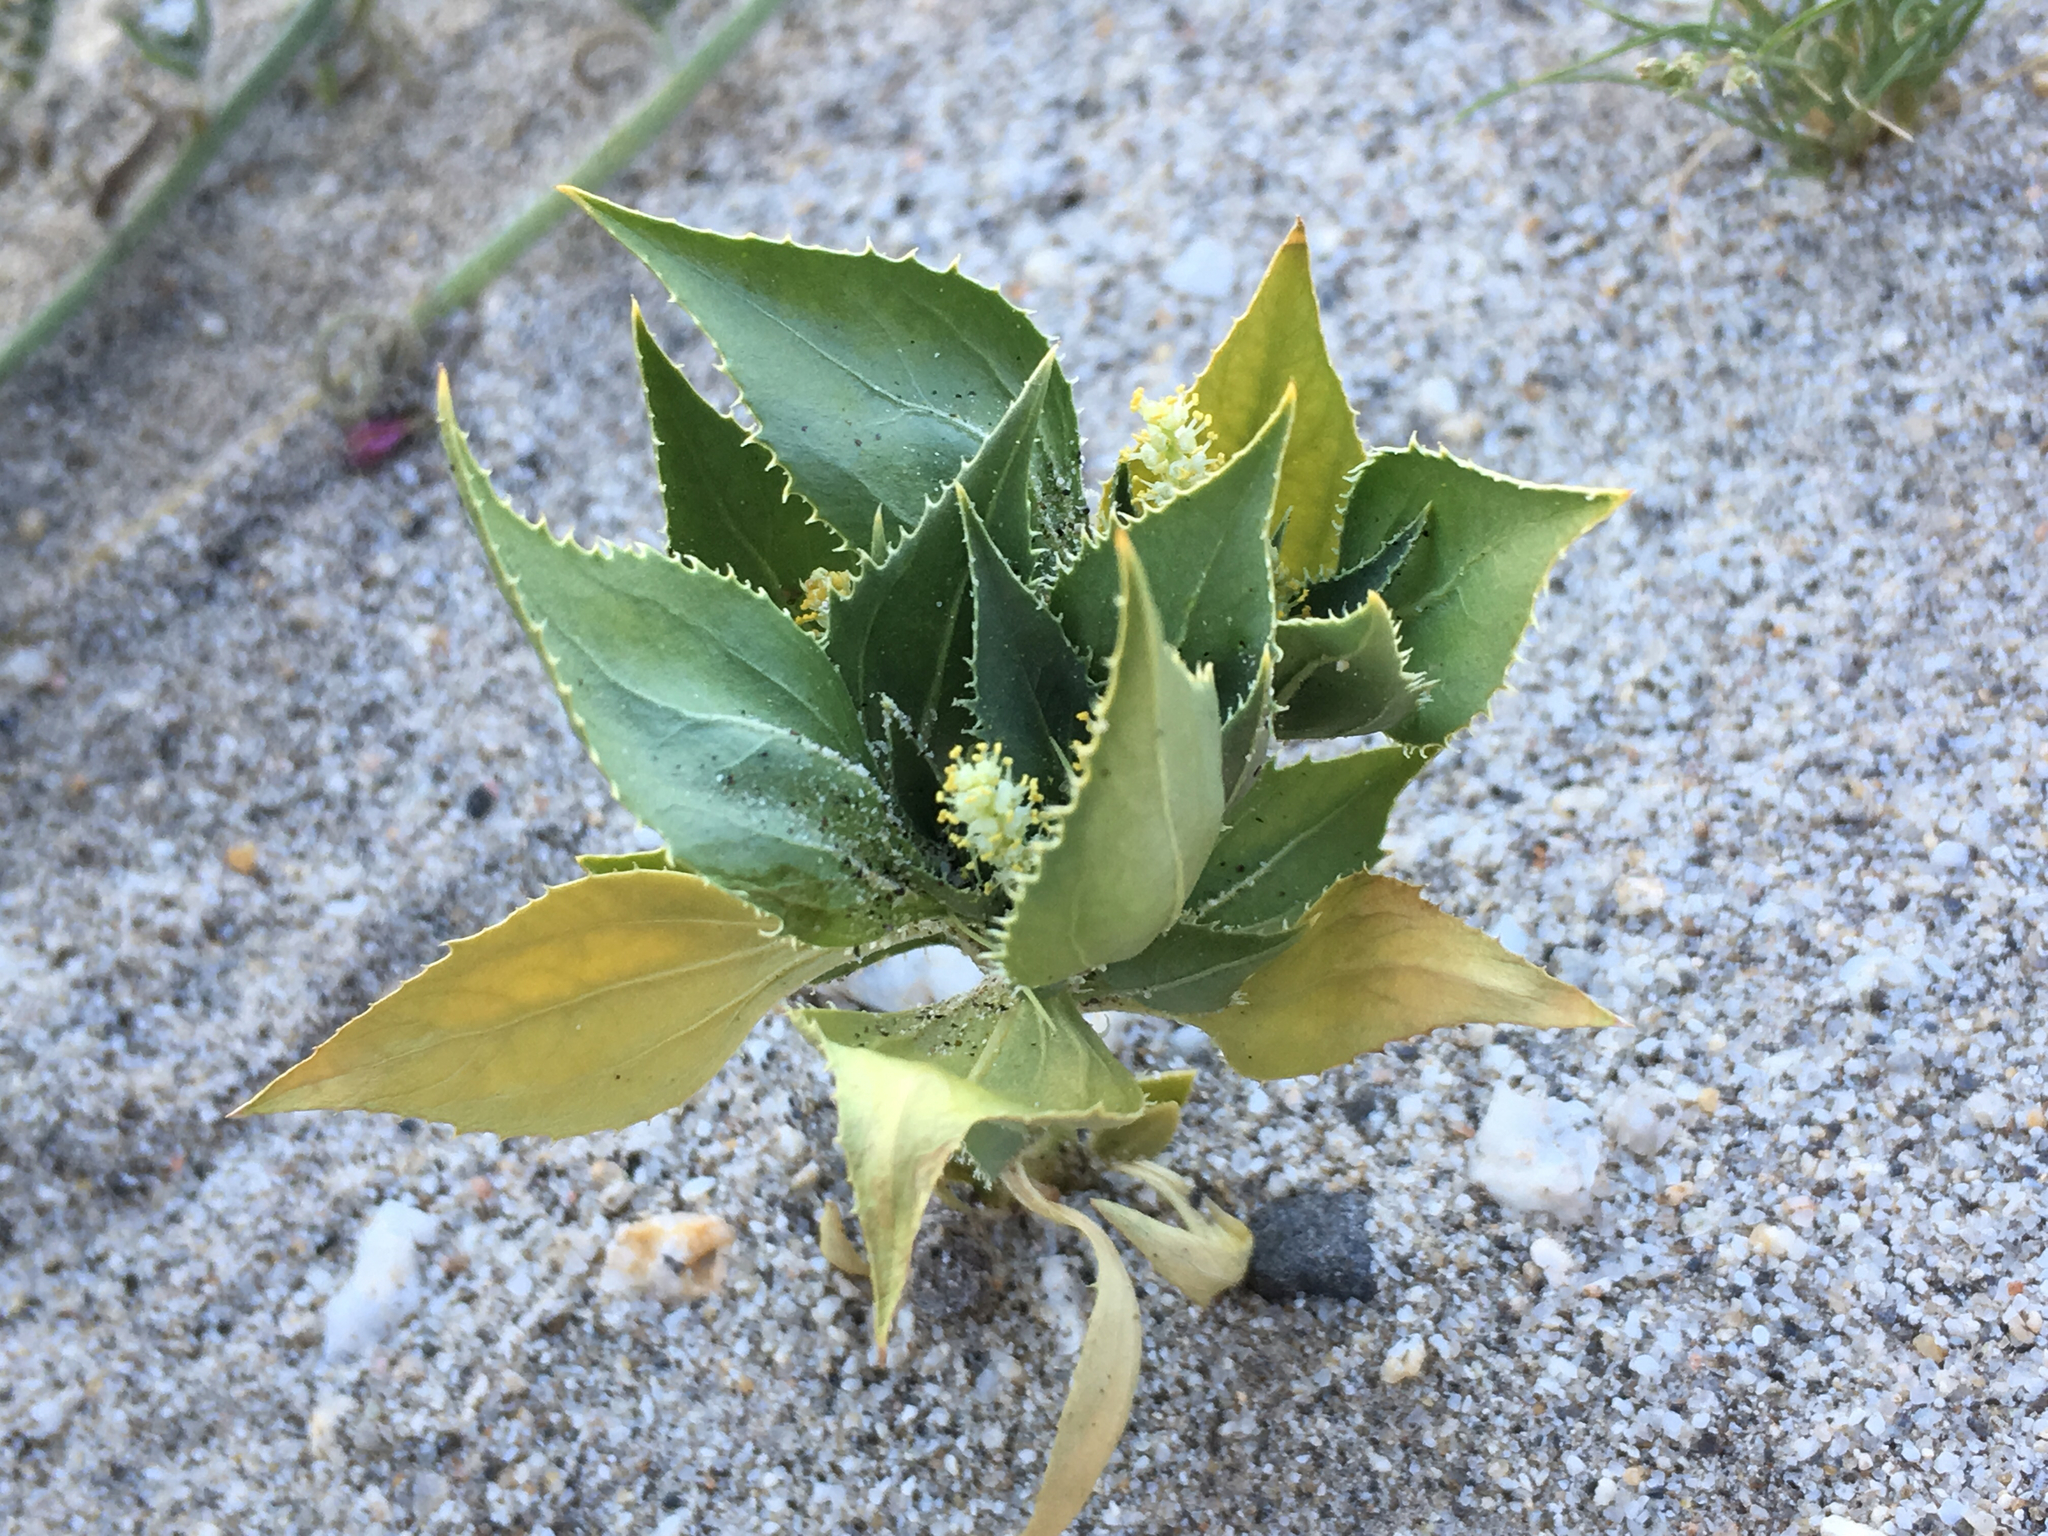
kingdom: Plantae
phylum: Tracheophyta
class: Magnoliopsida
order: Malpighiales
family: Euphorbiaceae
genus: Stillingia
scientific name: Stillingia spinulosa
